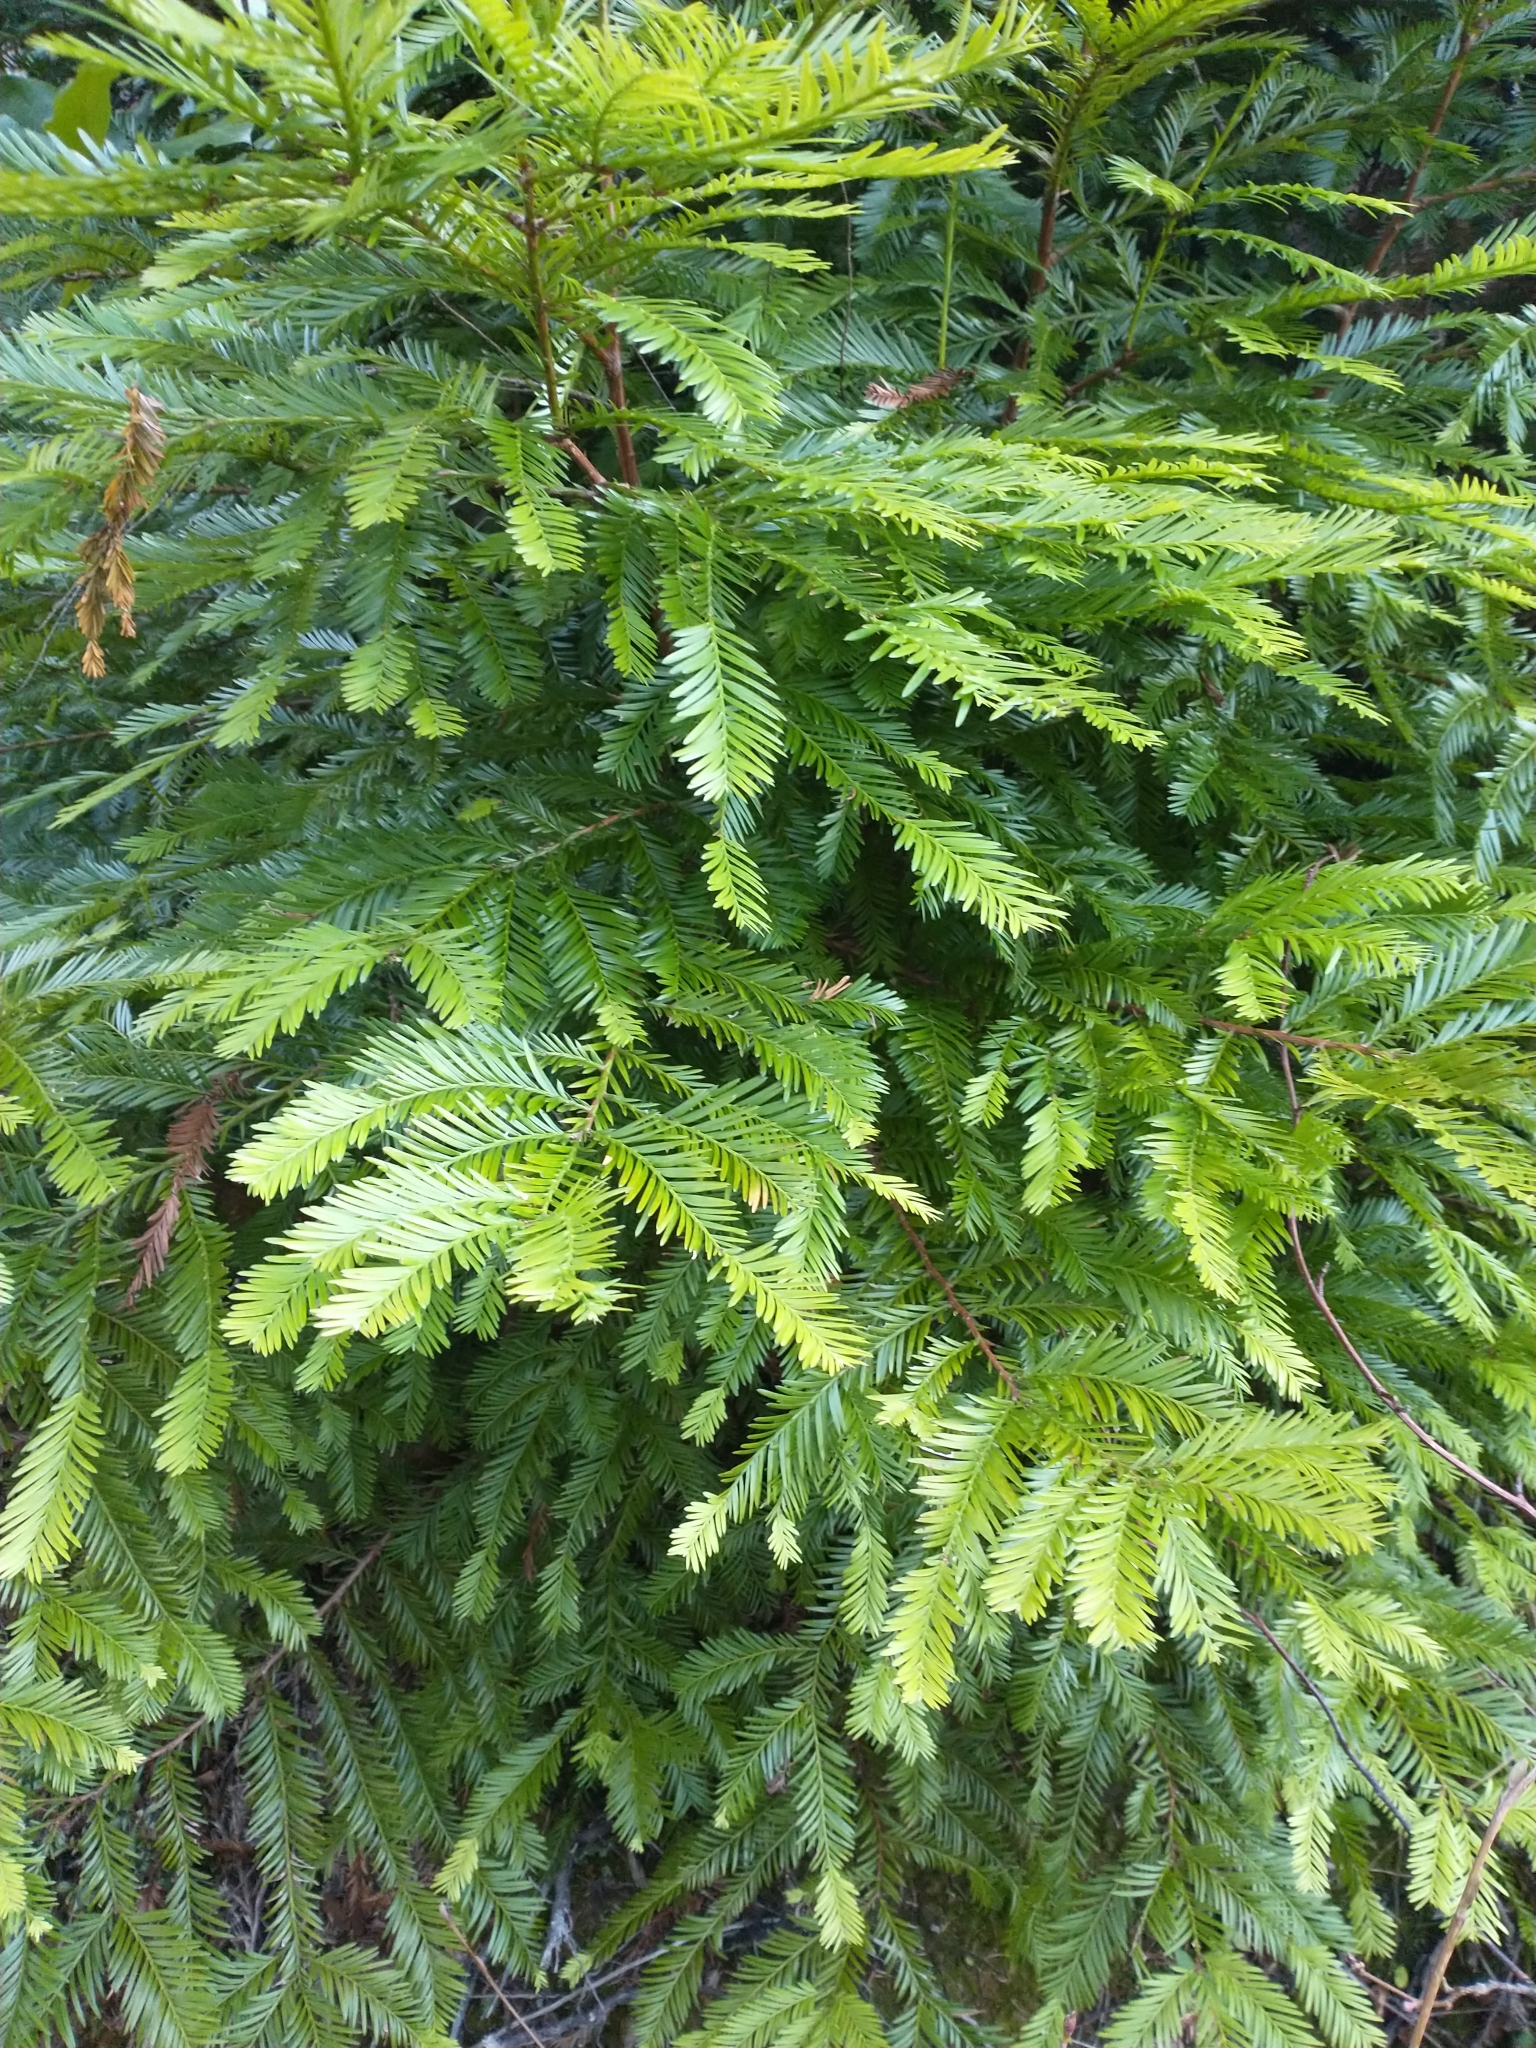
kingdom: Plantae
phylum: Tracheophyta
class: Pinopsida
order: Pinales
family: Cupressaceae
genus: Sequoia
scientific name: Sequoia sempervirens
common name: Coast redwood
